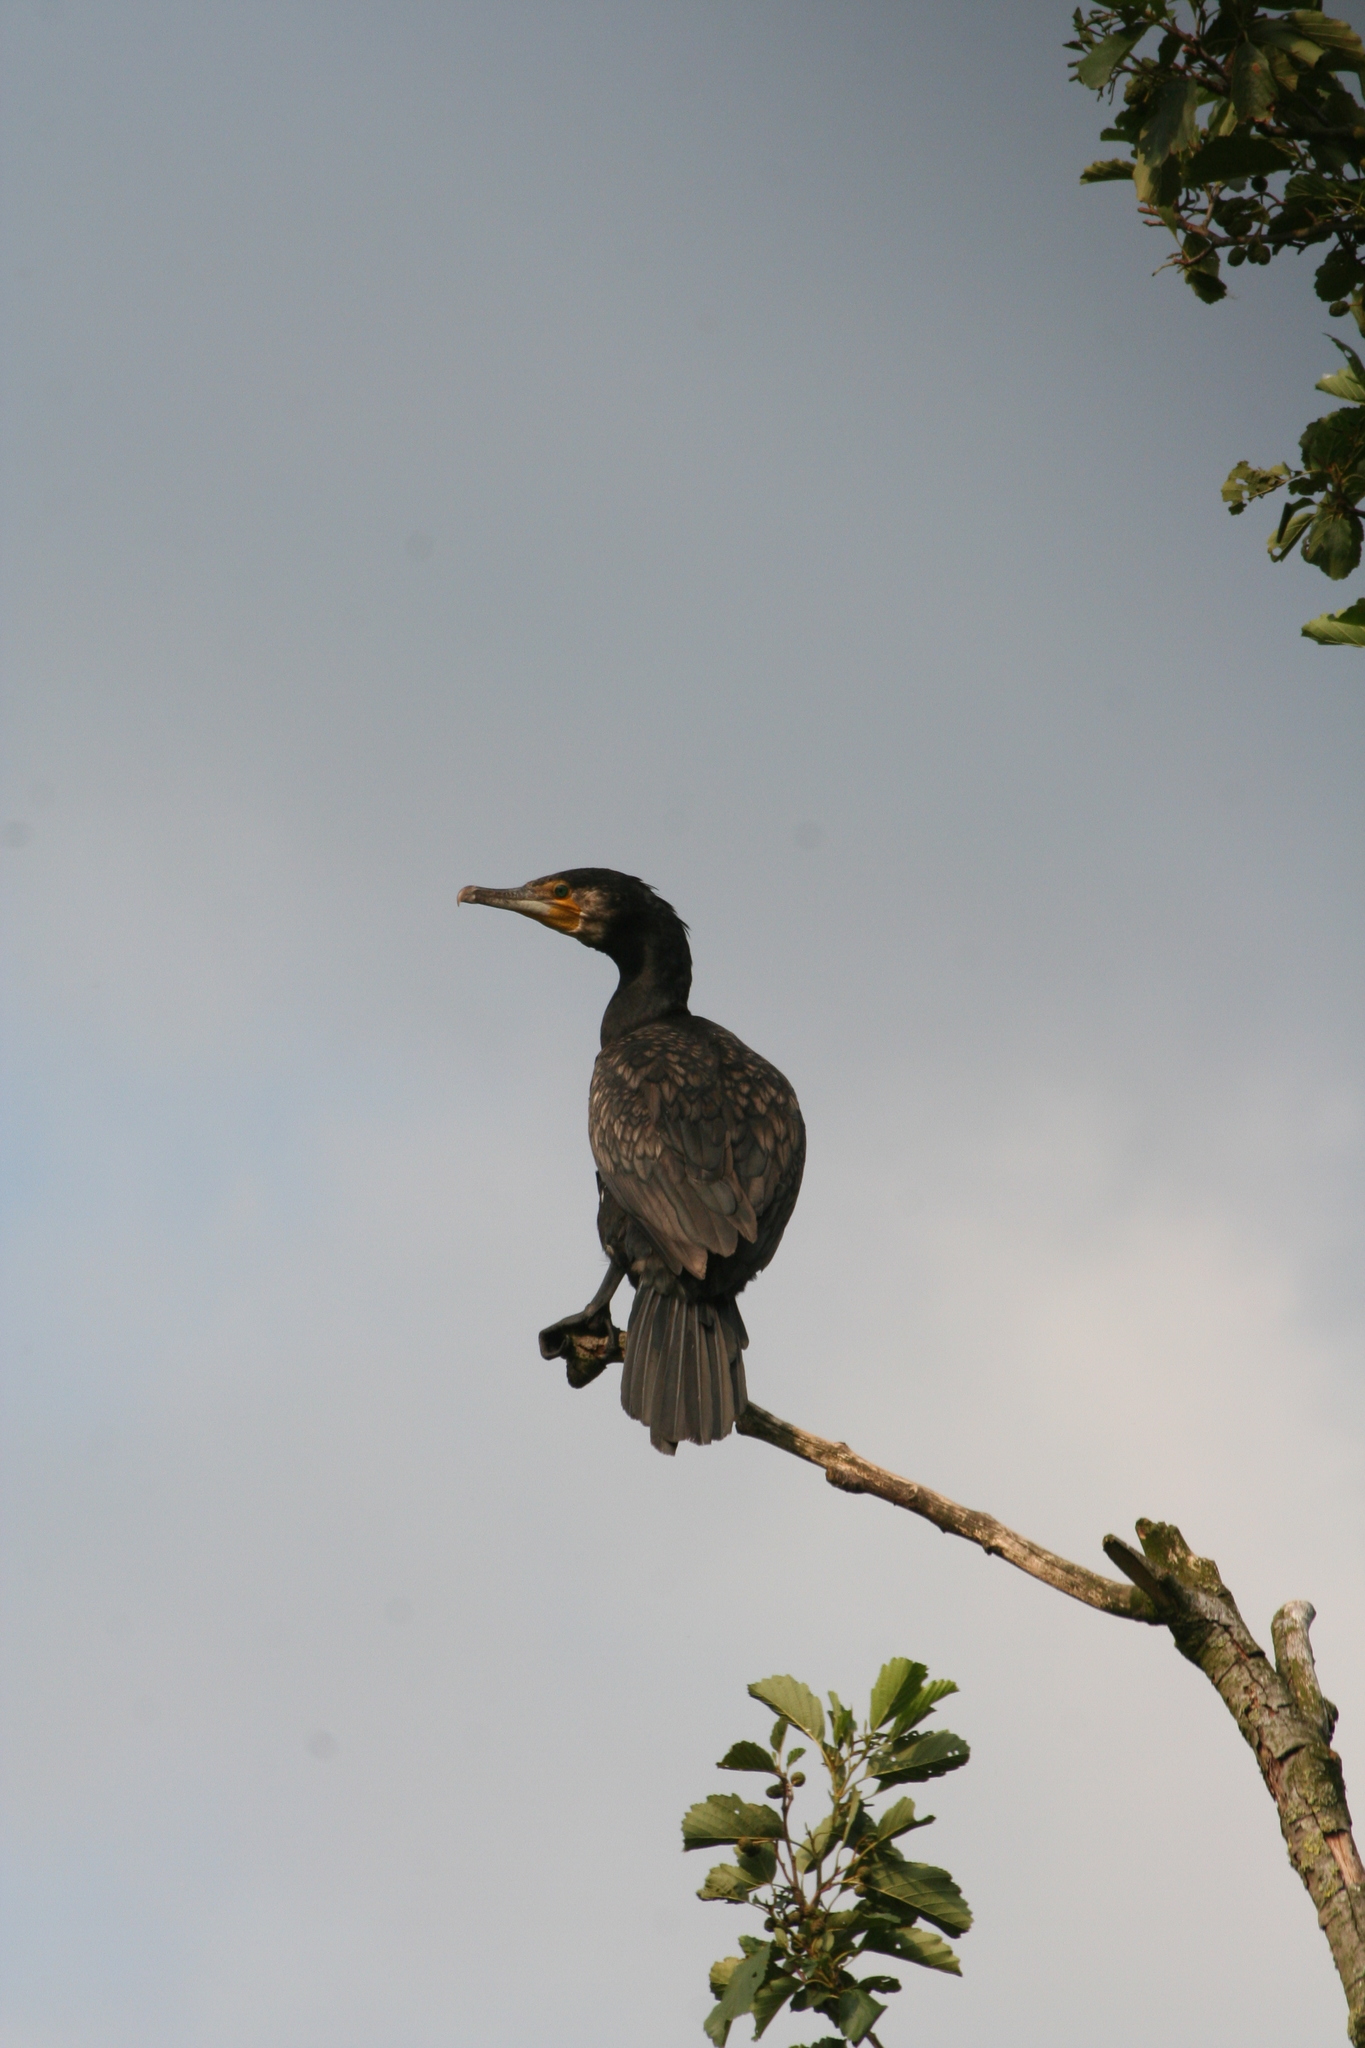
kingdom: Animalia
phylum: Chordata
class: Aves
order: Suliformes
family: Phalacrocoracidae
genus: Phalacrocorax
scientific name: Phalacrocorax carbo
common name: Great cormorant
